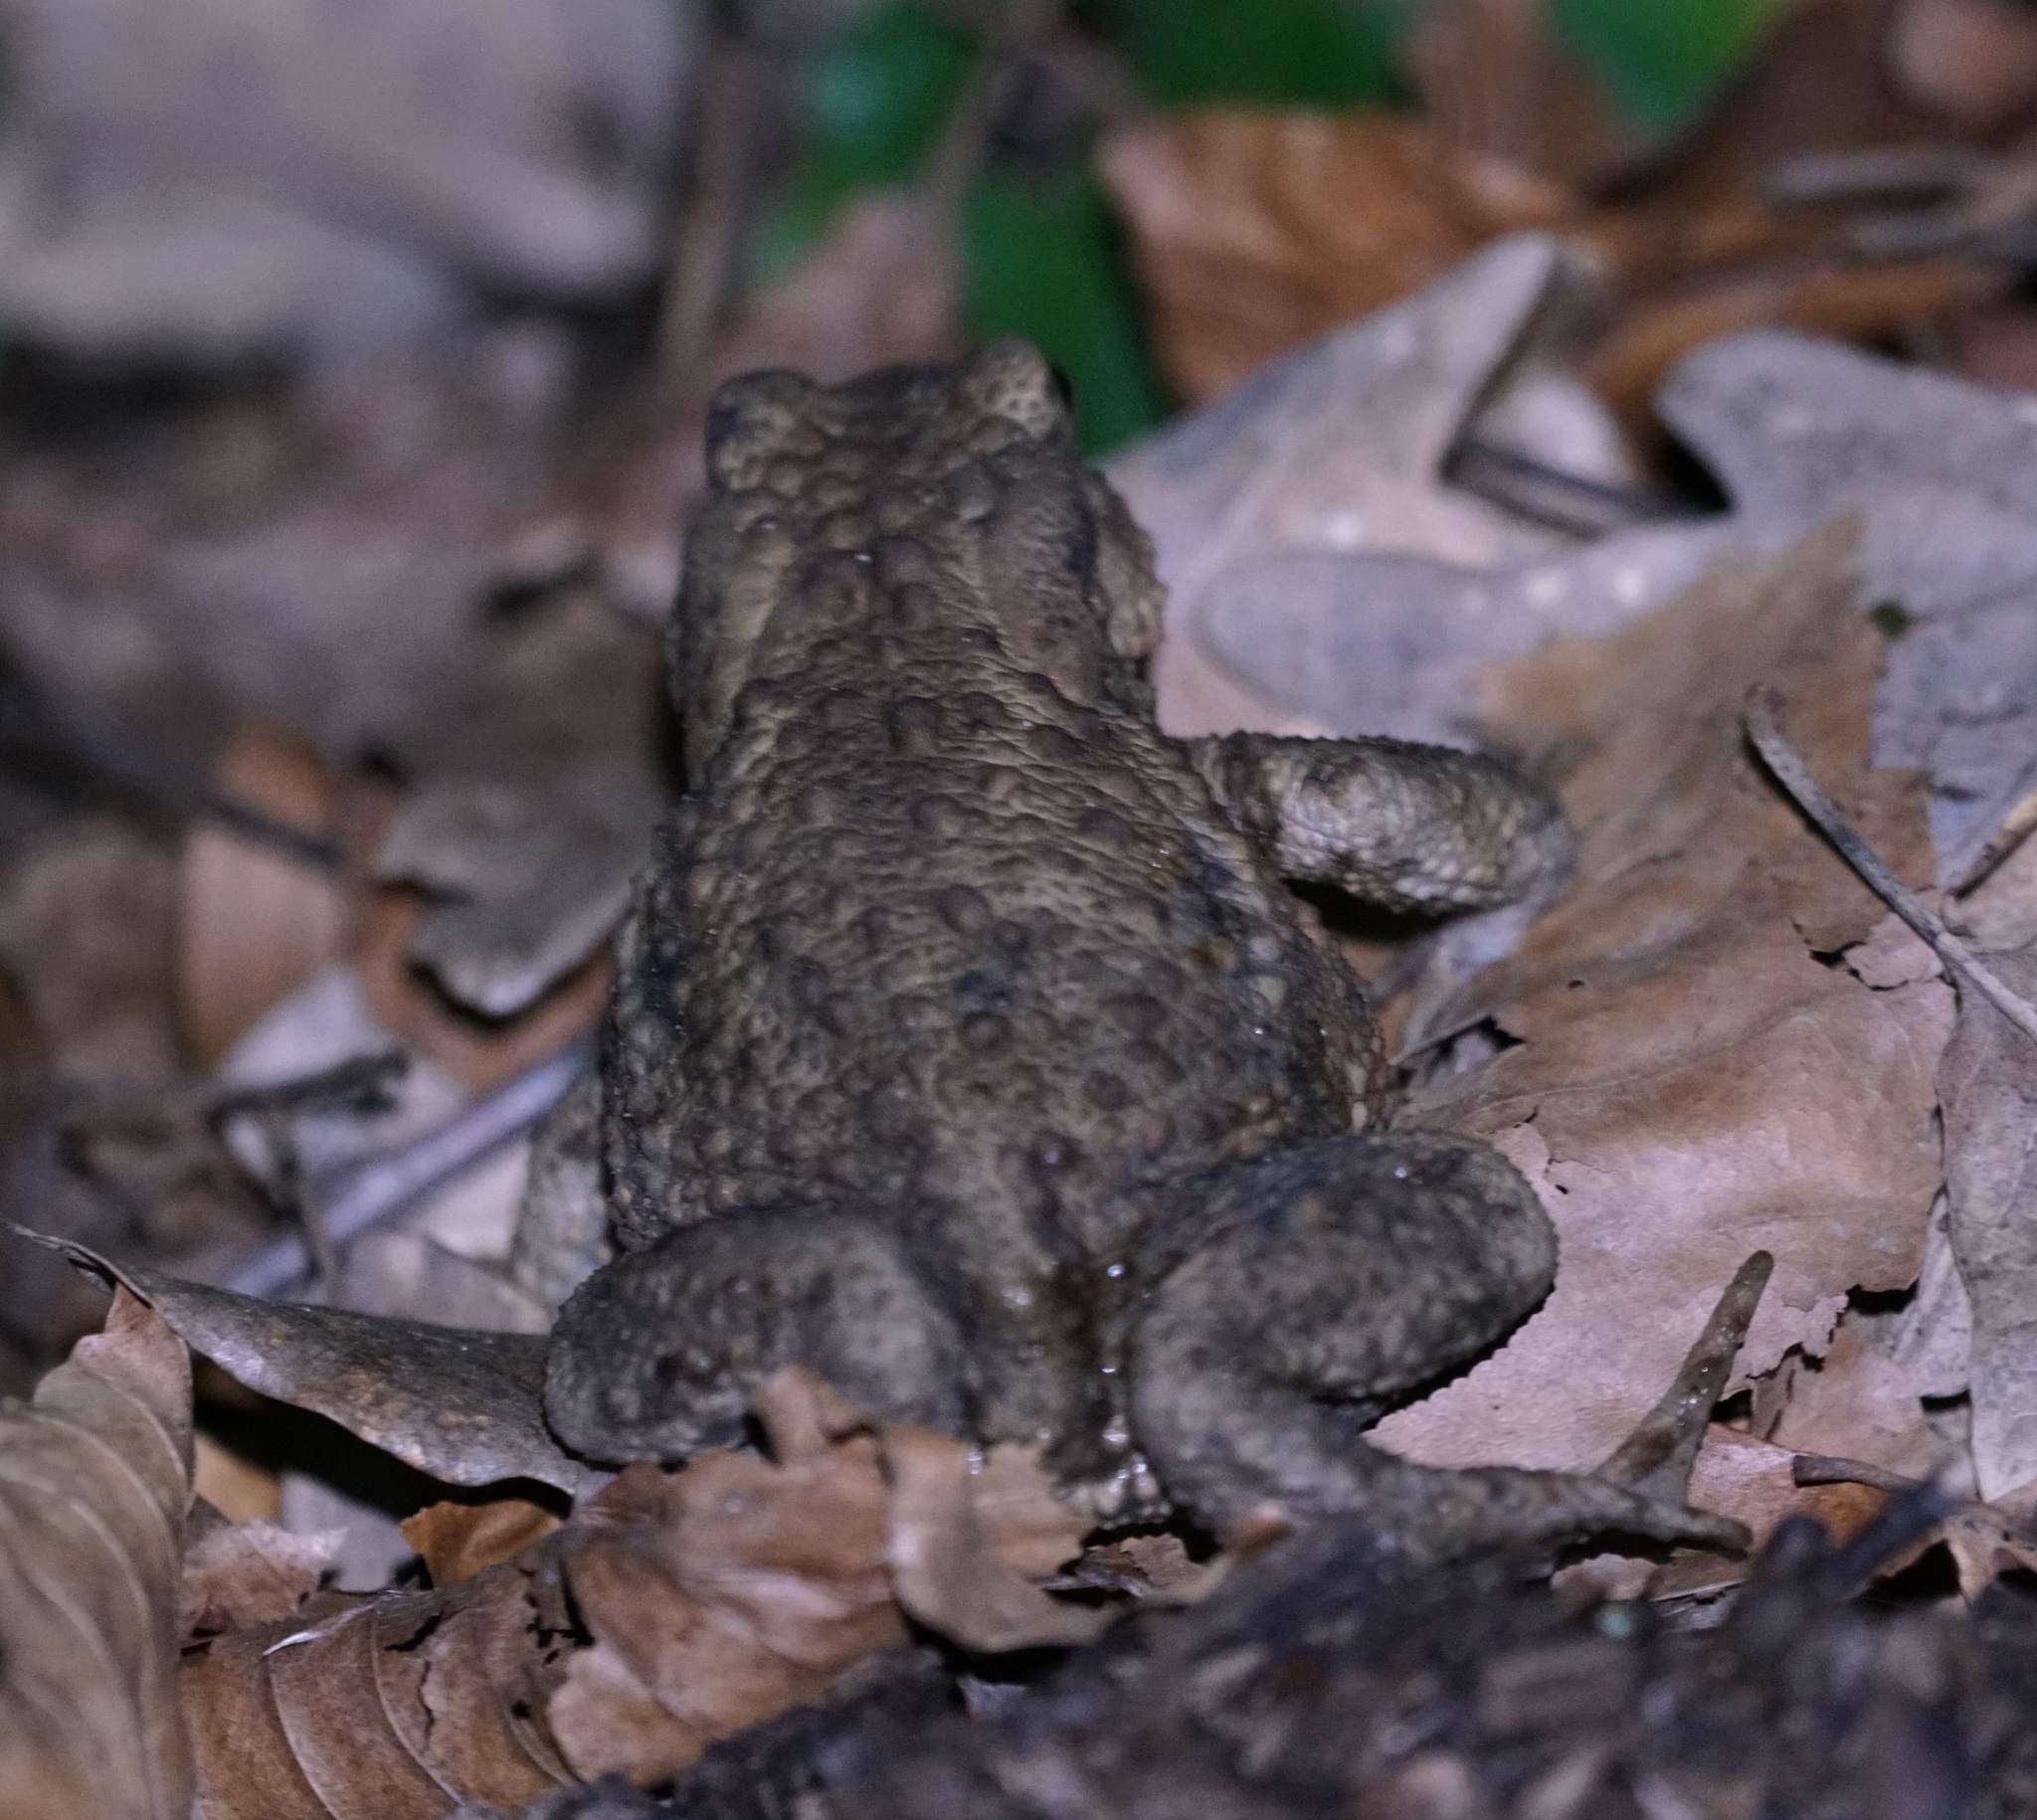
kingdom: Animalia
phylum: Chordata
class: Amphibia
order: Anura
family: Bufonidae
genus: Bufo
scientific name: Bufo bufo
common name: Common toad
